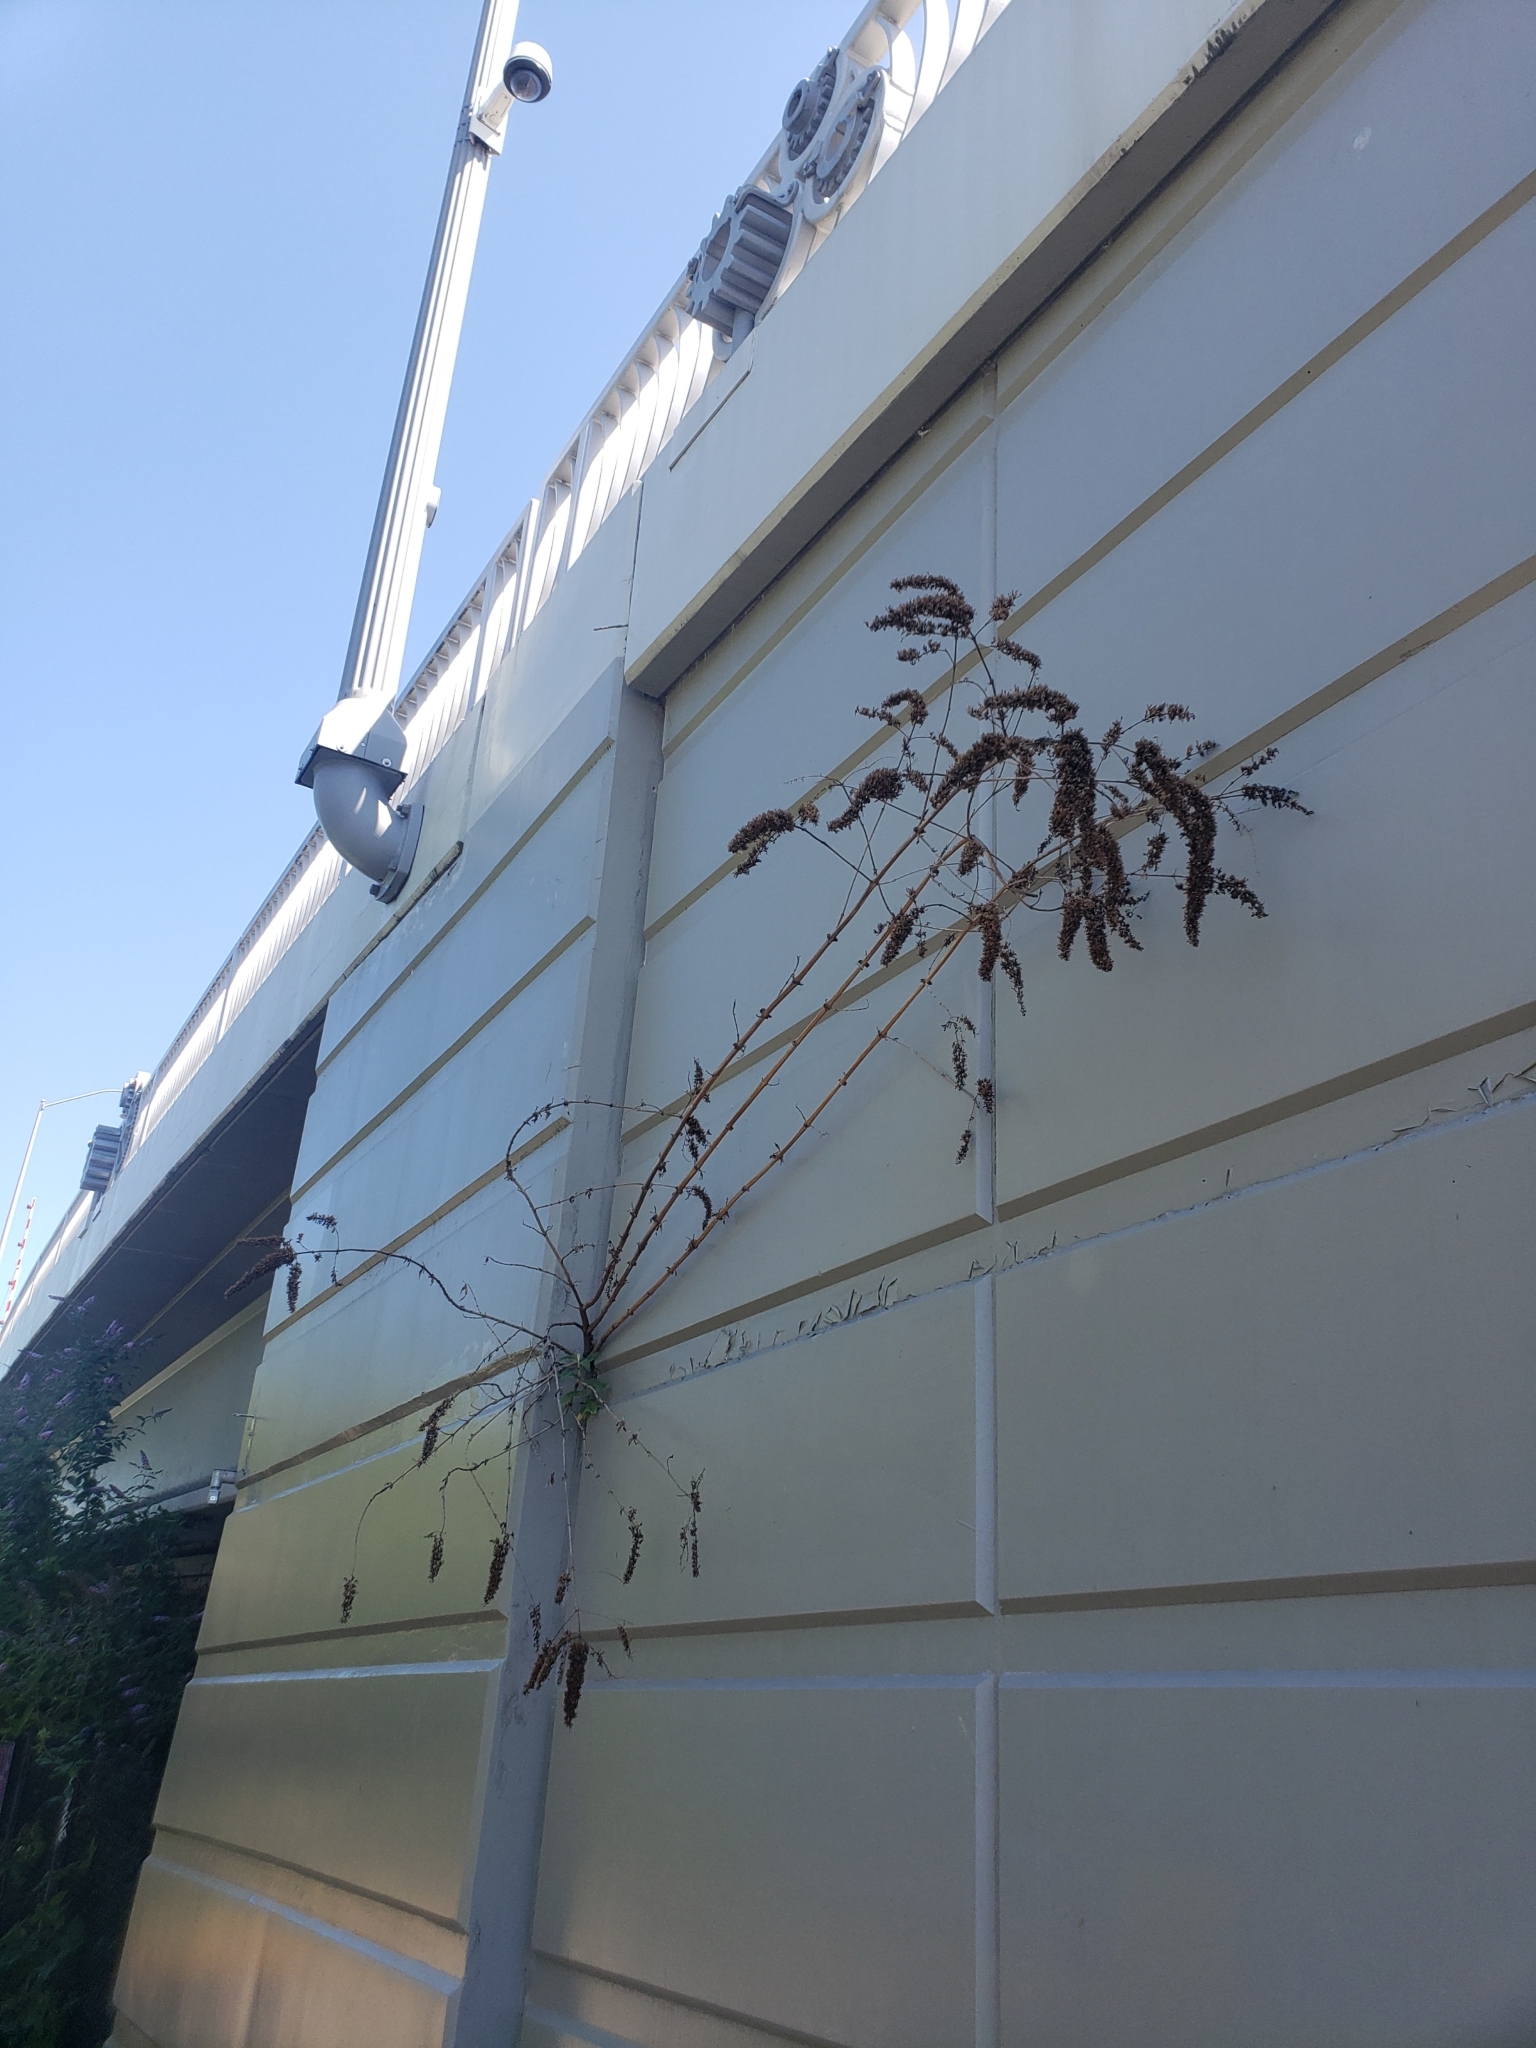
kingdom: Plantae
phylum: Tracheophyta
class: Magnoliopsida
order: Lamiales
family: Scrophulariaceae
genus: Buddleja
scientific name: Buddleja davidii
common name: Butterfly-bush
